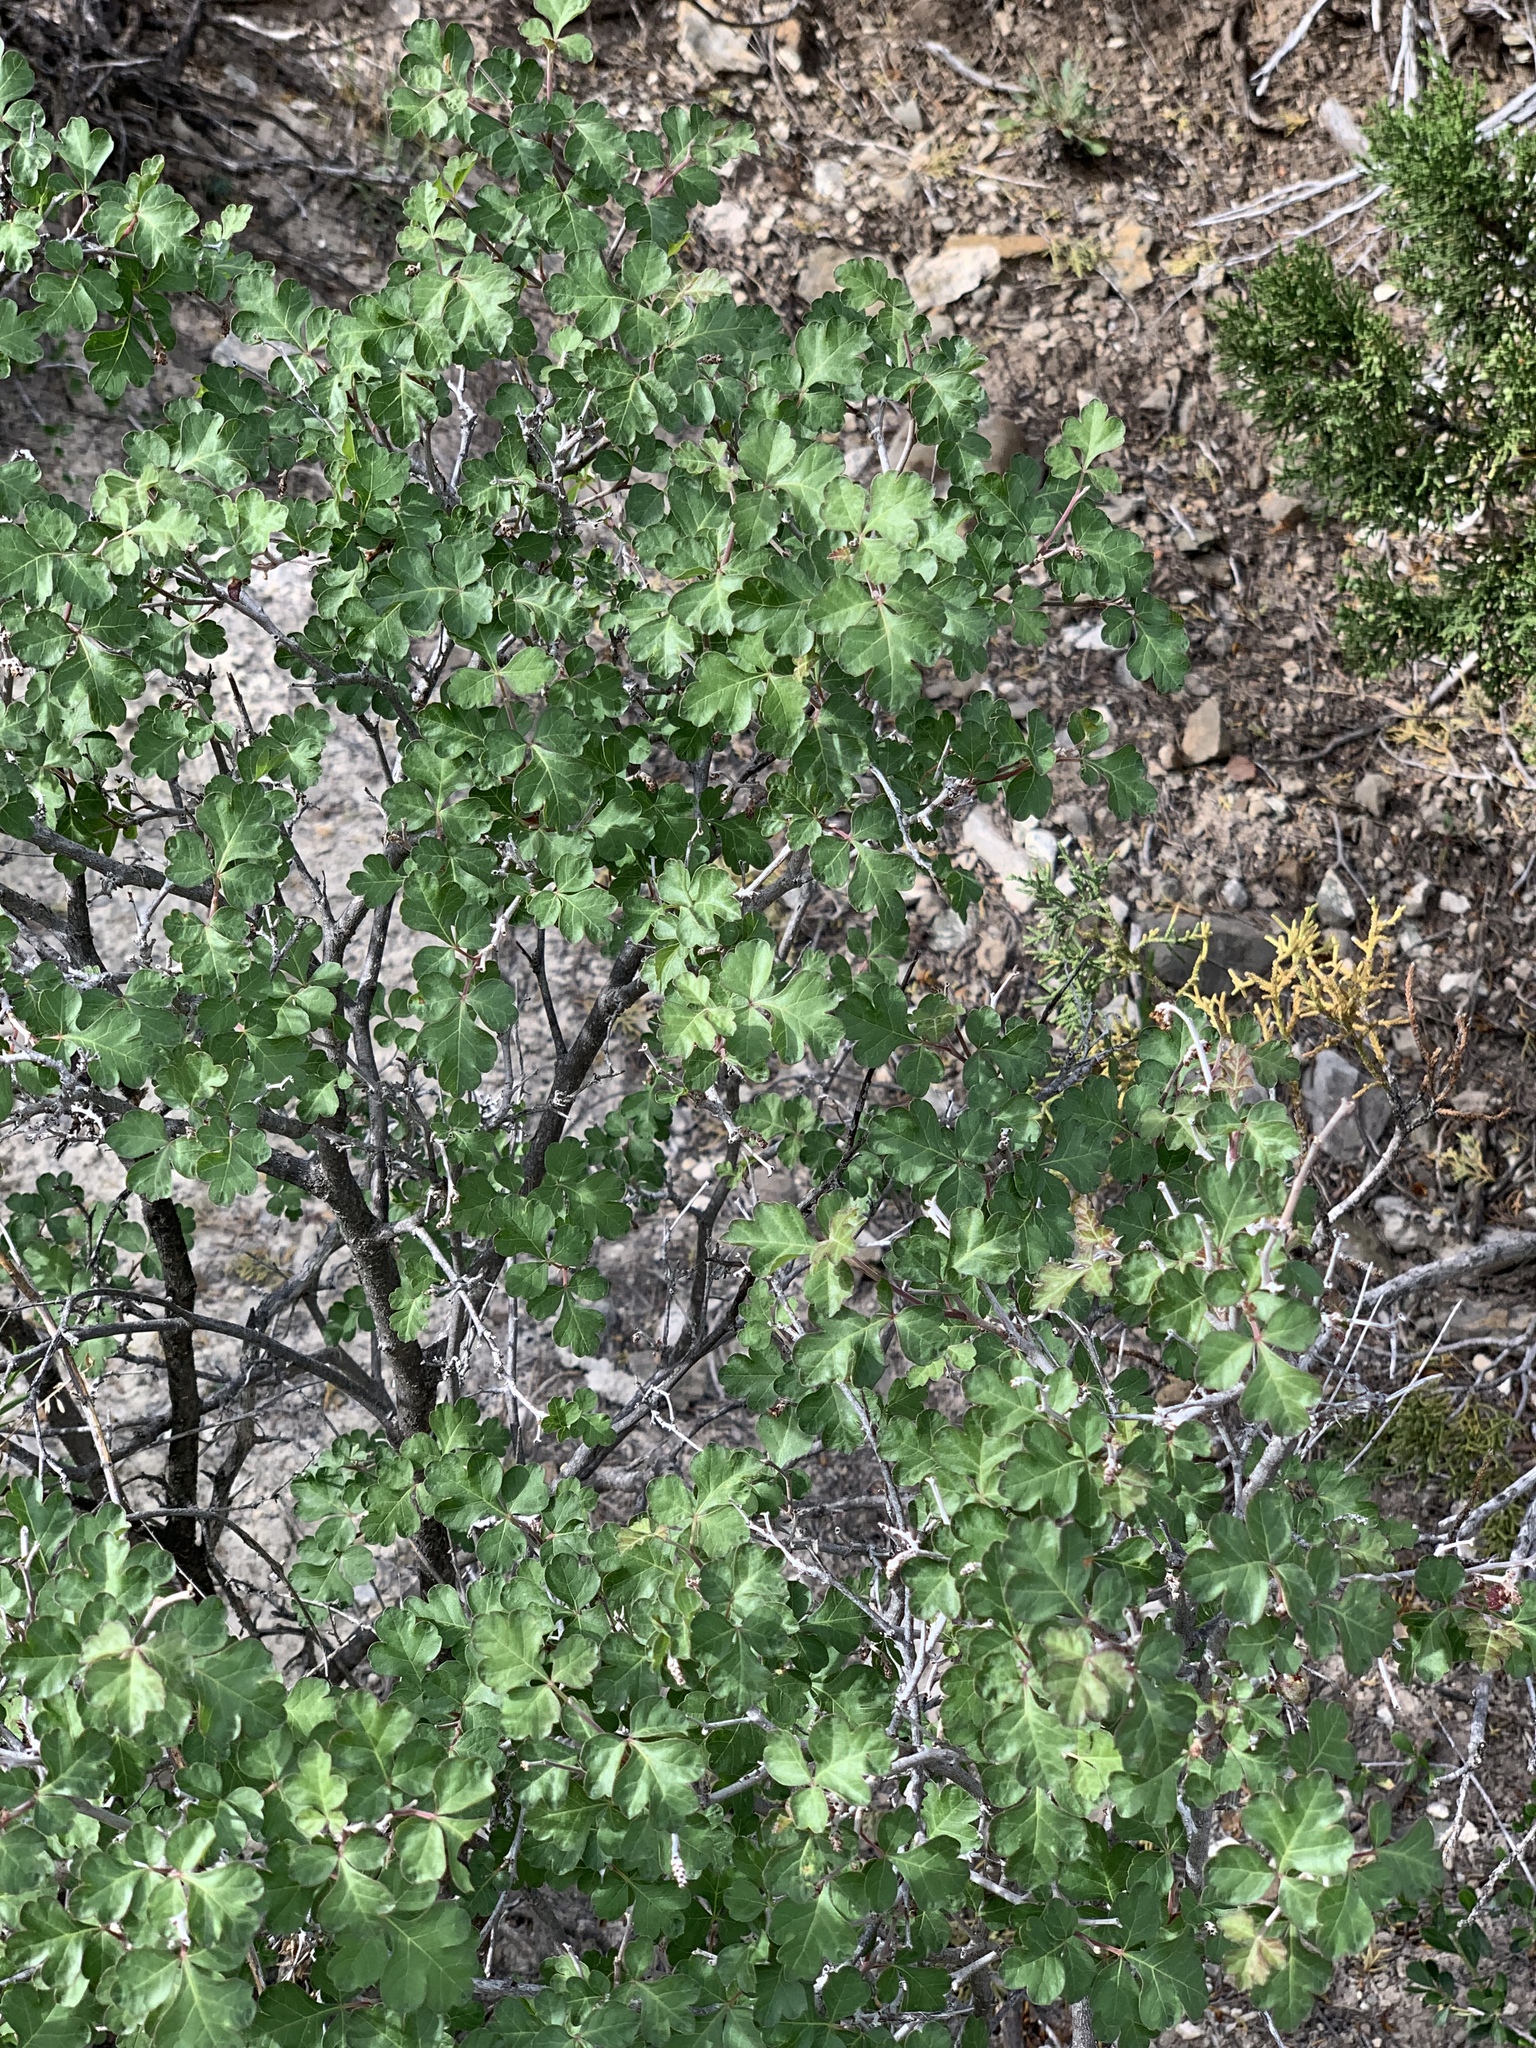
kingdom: Plantae
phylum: Tracheophyta
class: Magnoliopsida
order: Sapindales
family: Anacardiaceae
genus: Rhus
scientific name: Rhus aromatica
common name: Aromatic sumac
